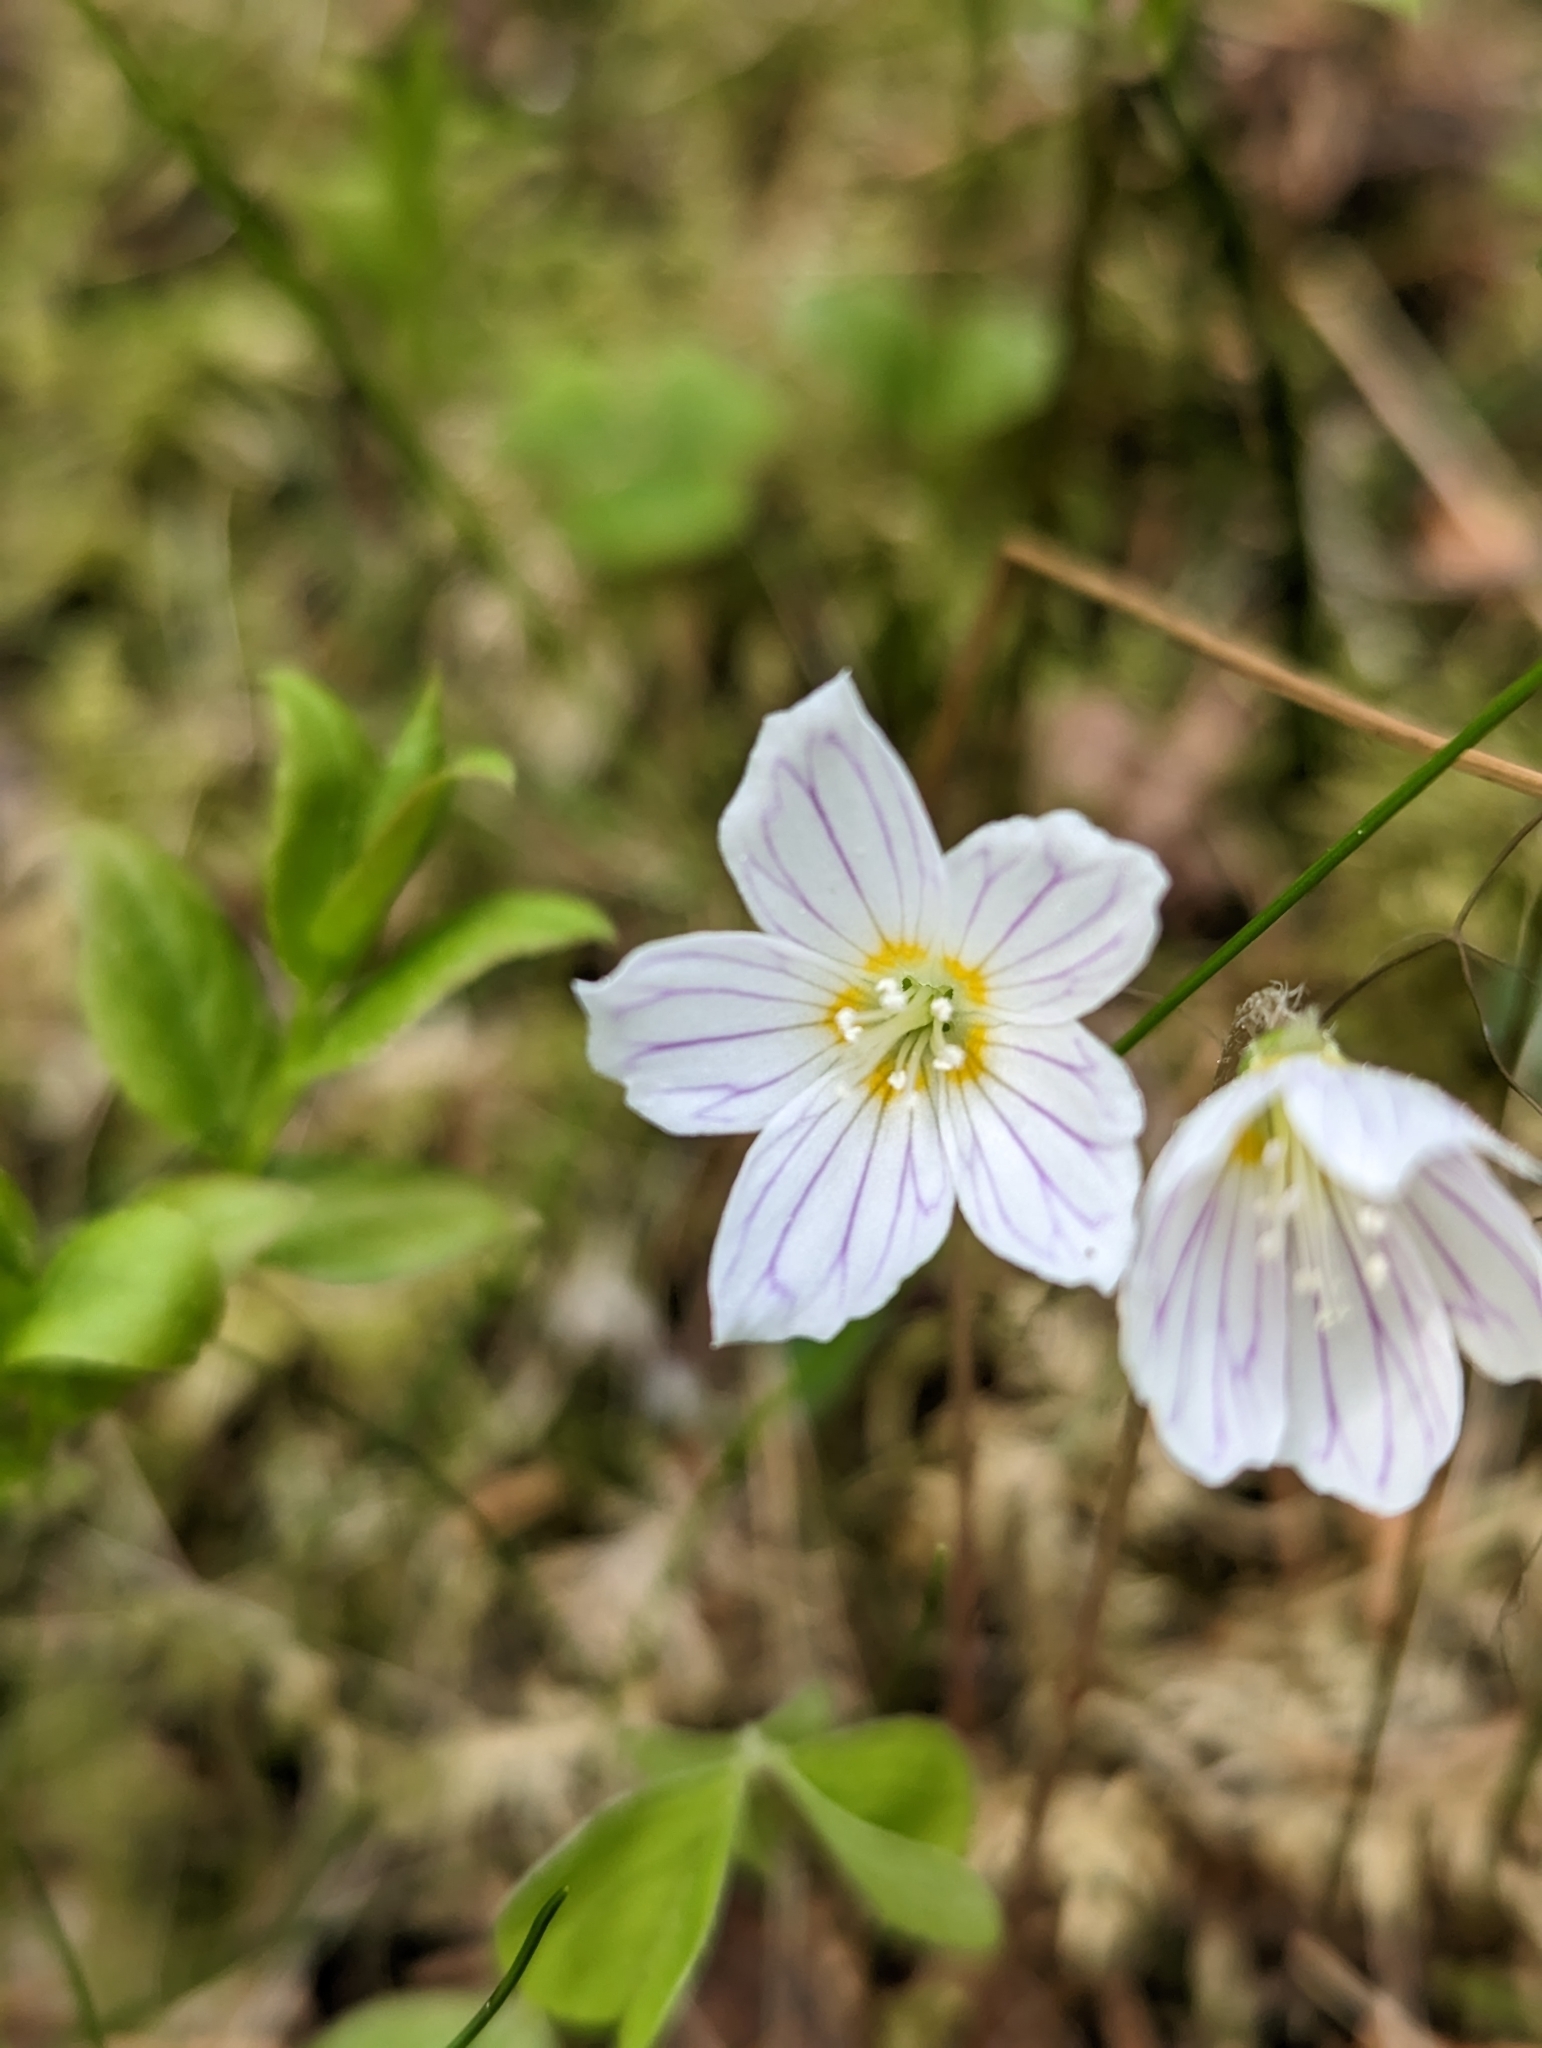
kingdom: Plantae
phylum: Tracheophyta
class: Magnoliopsida
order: Oxalidales
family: Oxalidaceae
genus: Oxalis
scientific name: Oxalis acetosella
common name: Wood-sorrel
